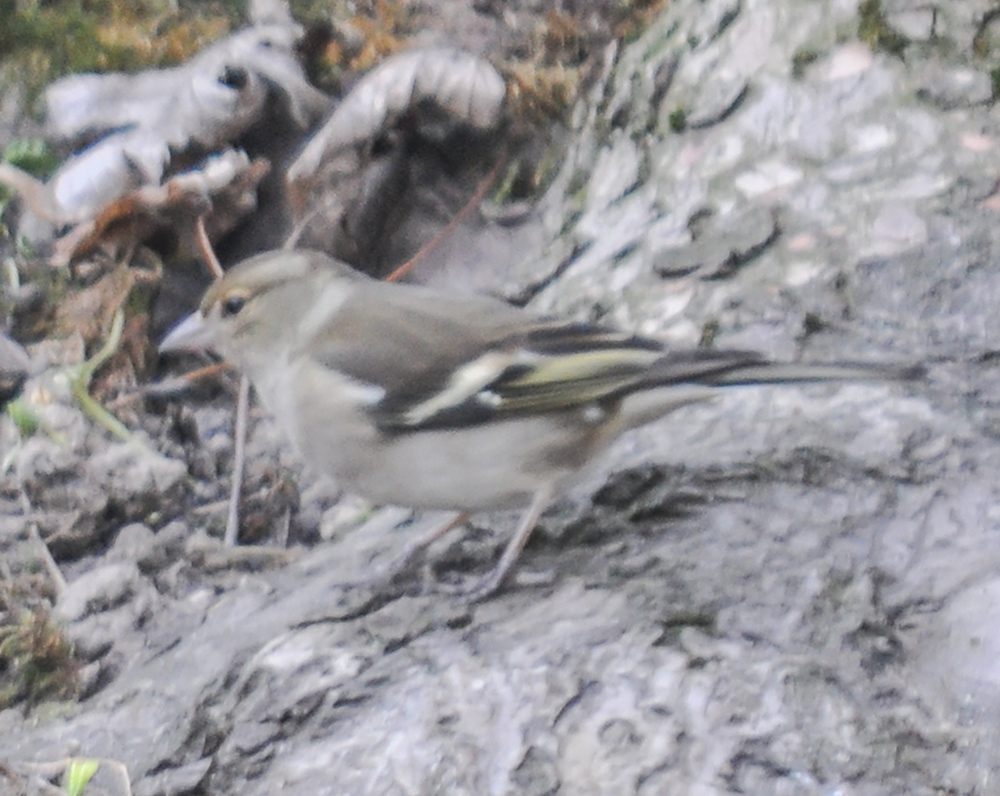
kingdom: Animalia
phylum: Chordata
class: Aves
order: Passeriformes
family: Fringillidae
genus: Fringilla
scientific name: Fringilla coelebs
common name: Common chaffinch
